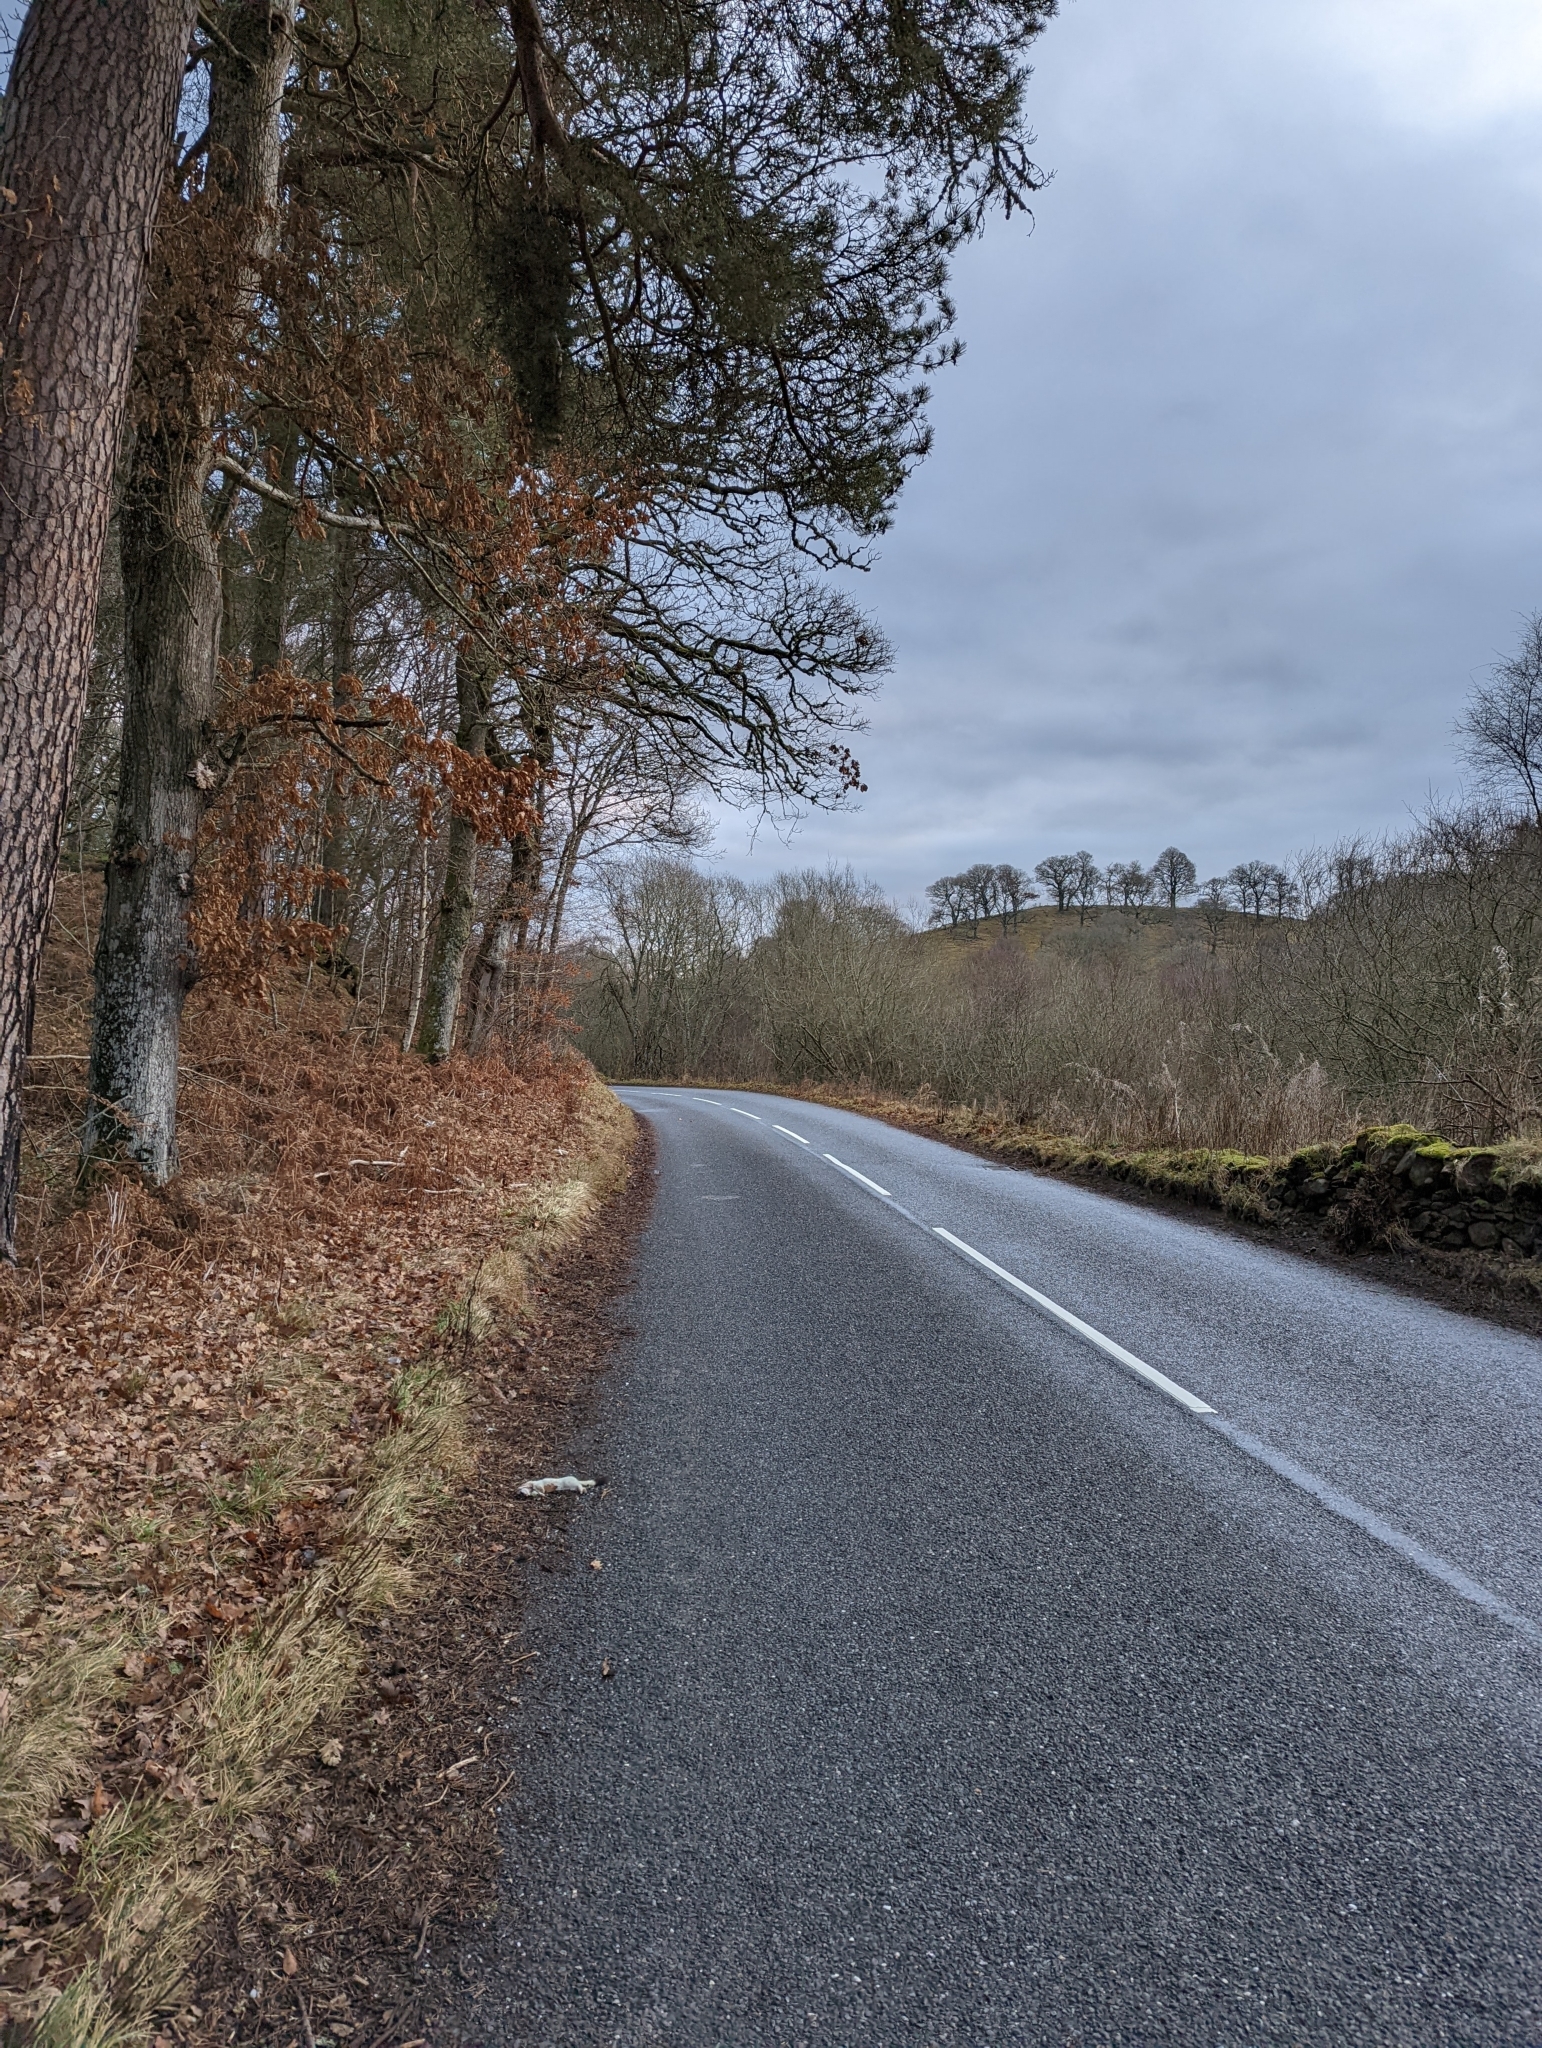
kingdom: Animalia
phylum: Chordata
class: Mammalia
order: Carnivora
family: Mustelidae
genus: Mustela
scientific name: Mustela erminea
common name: Stoat
